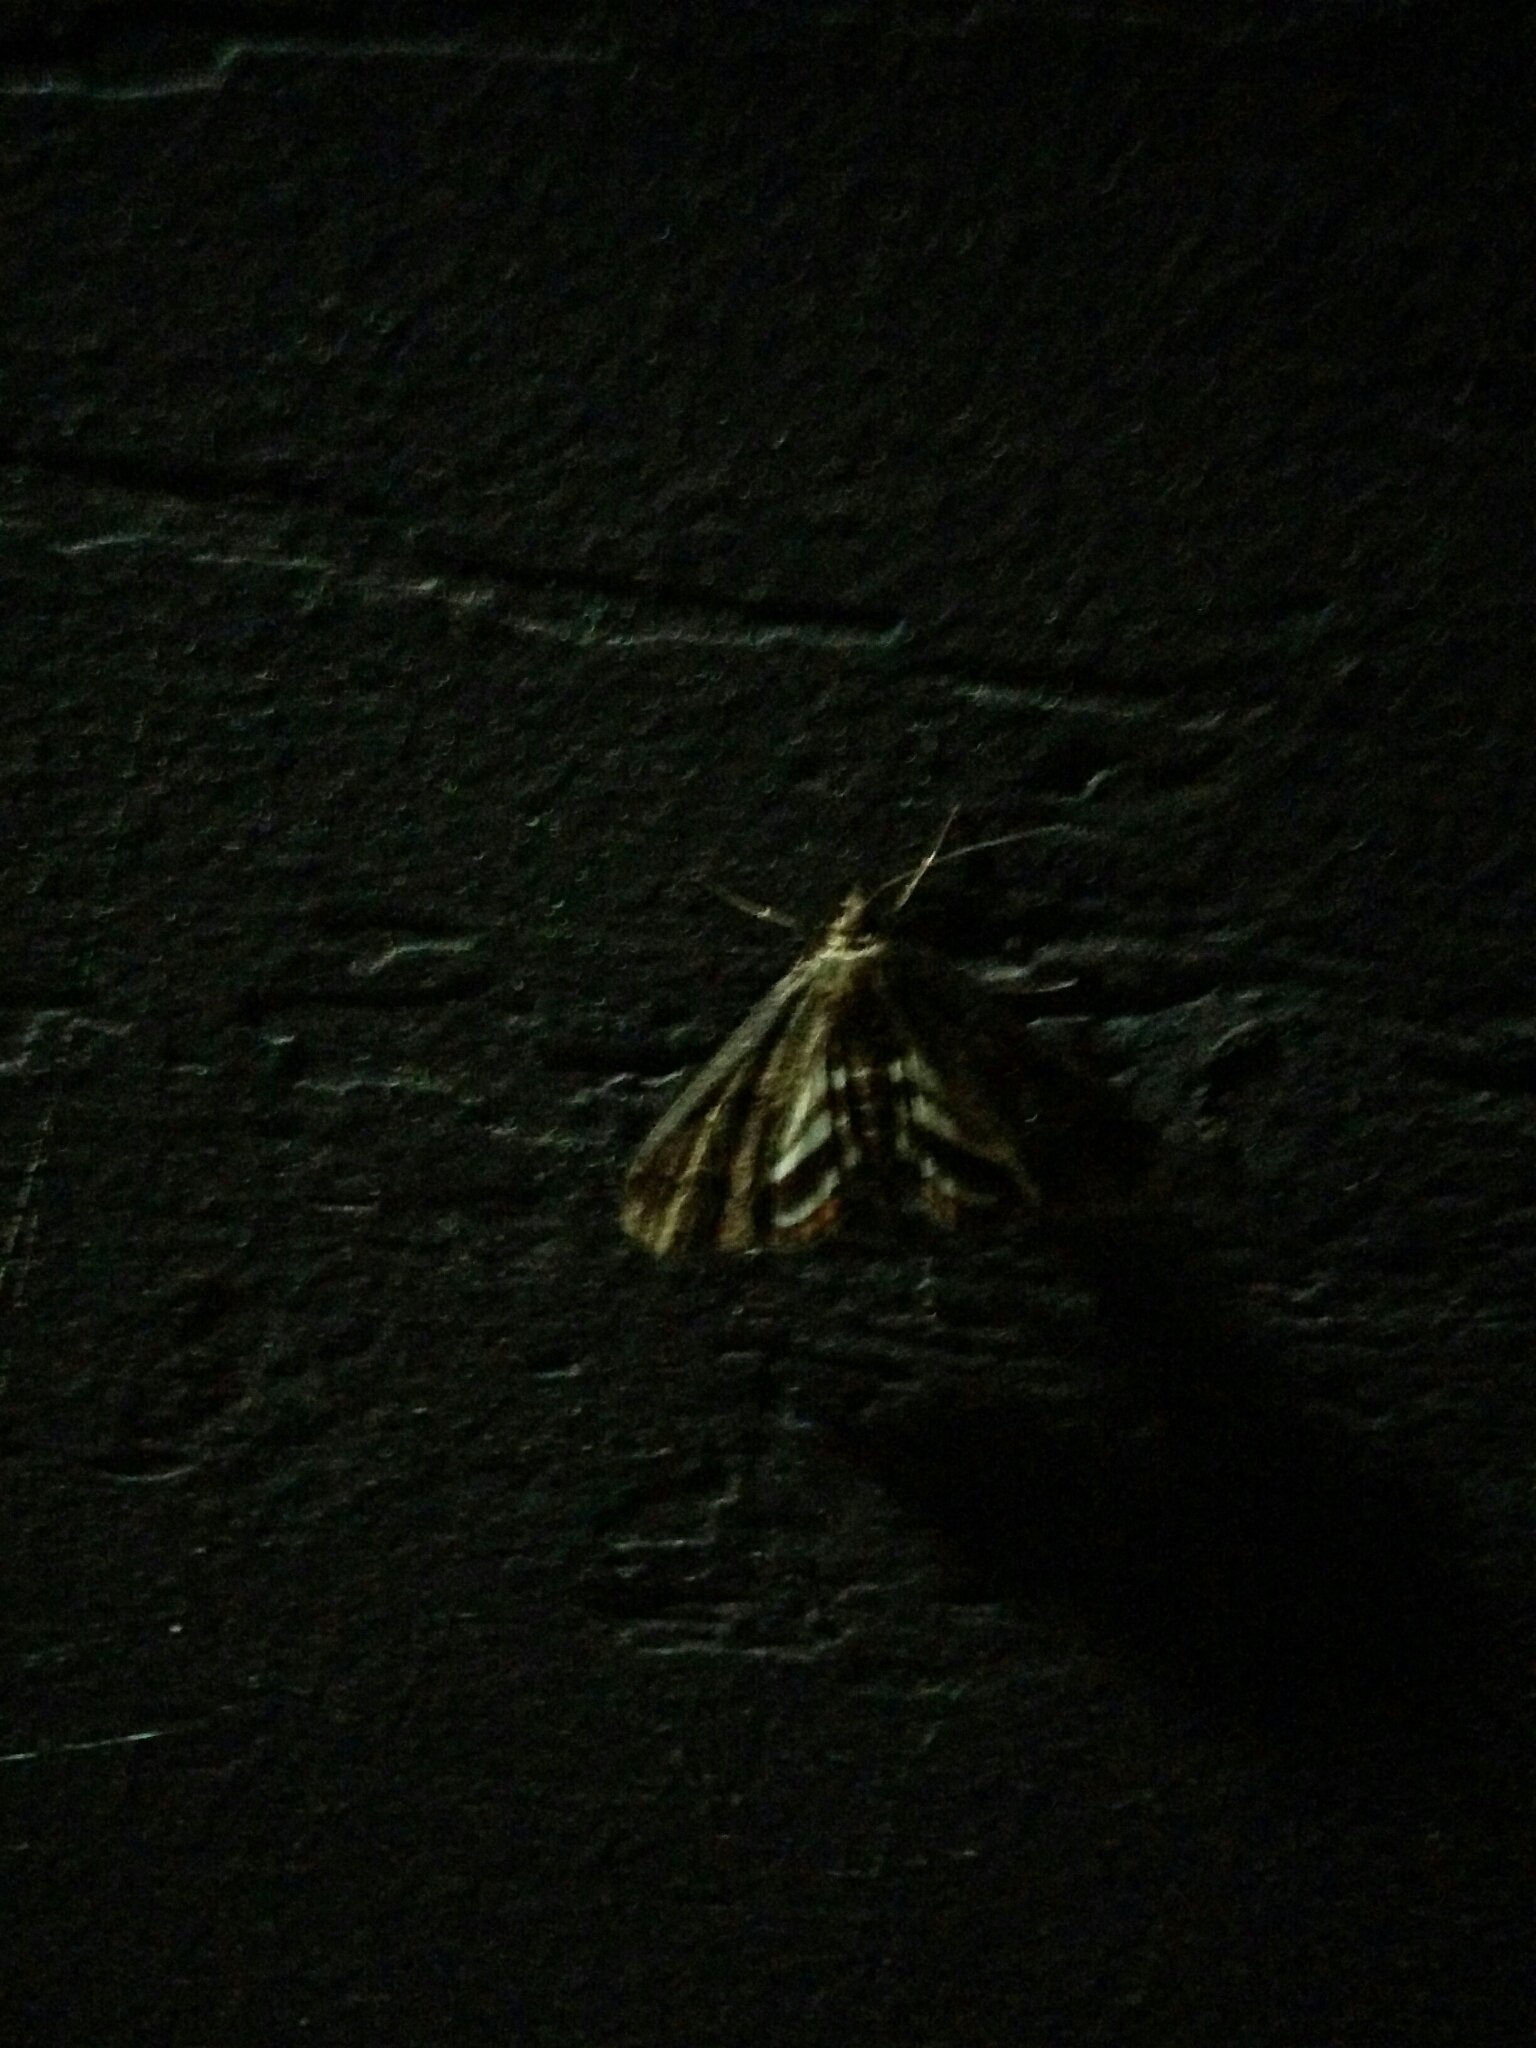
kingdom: Animalia
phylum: Arthropoda
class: Insecta
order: Lepidoptera
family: Crambidae
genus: Parapoynx
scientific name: Parapoynx obscuralis
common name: American china-mark
